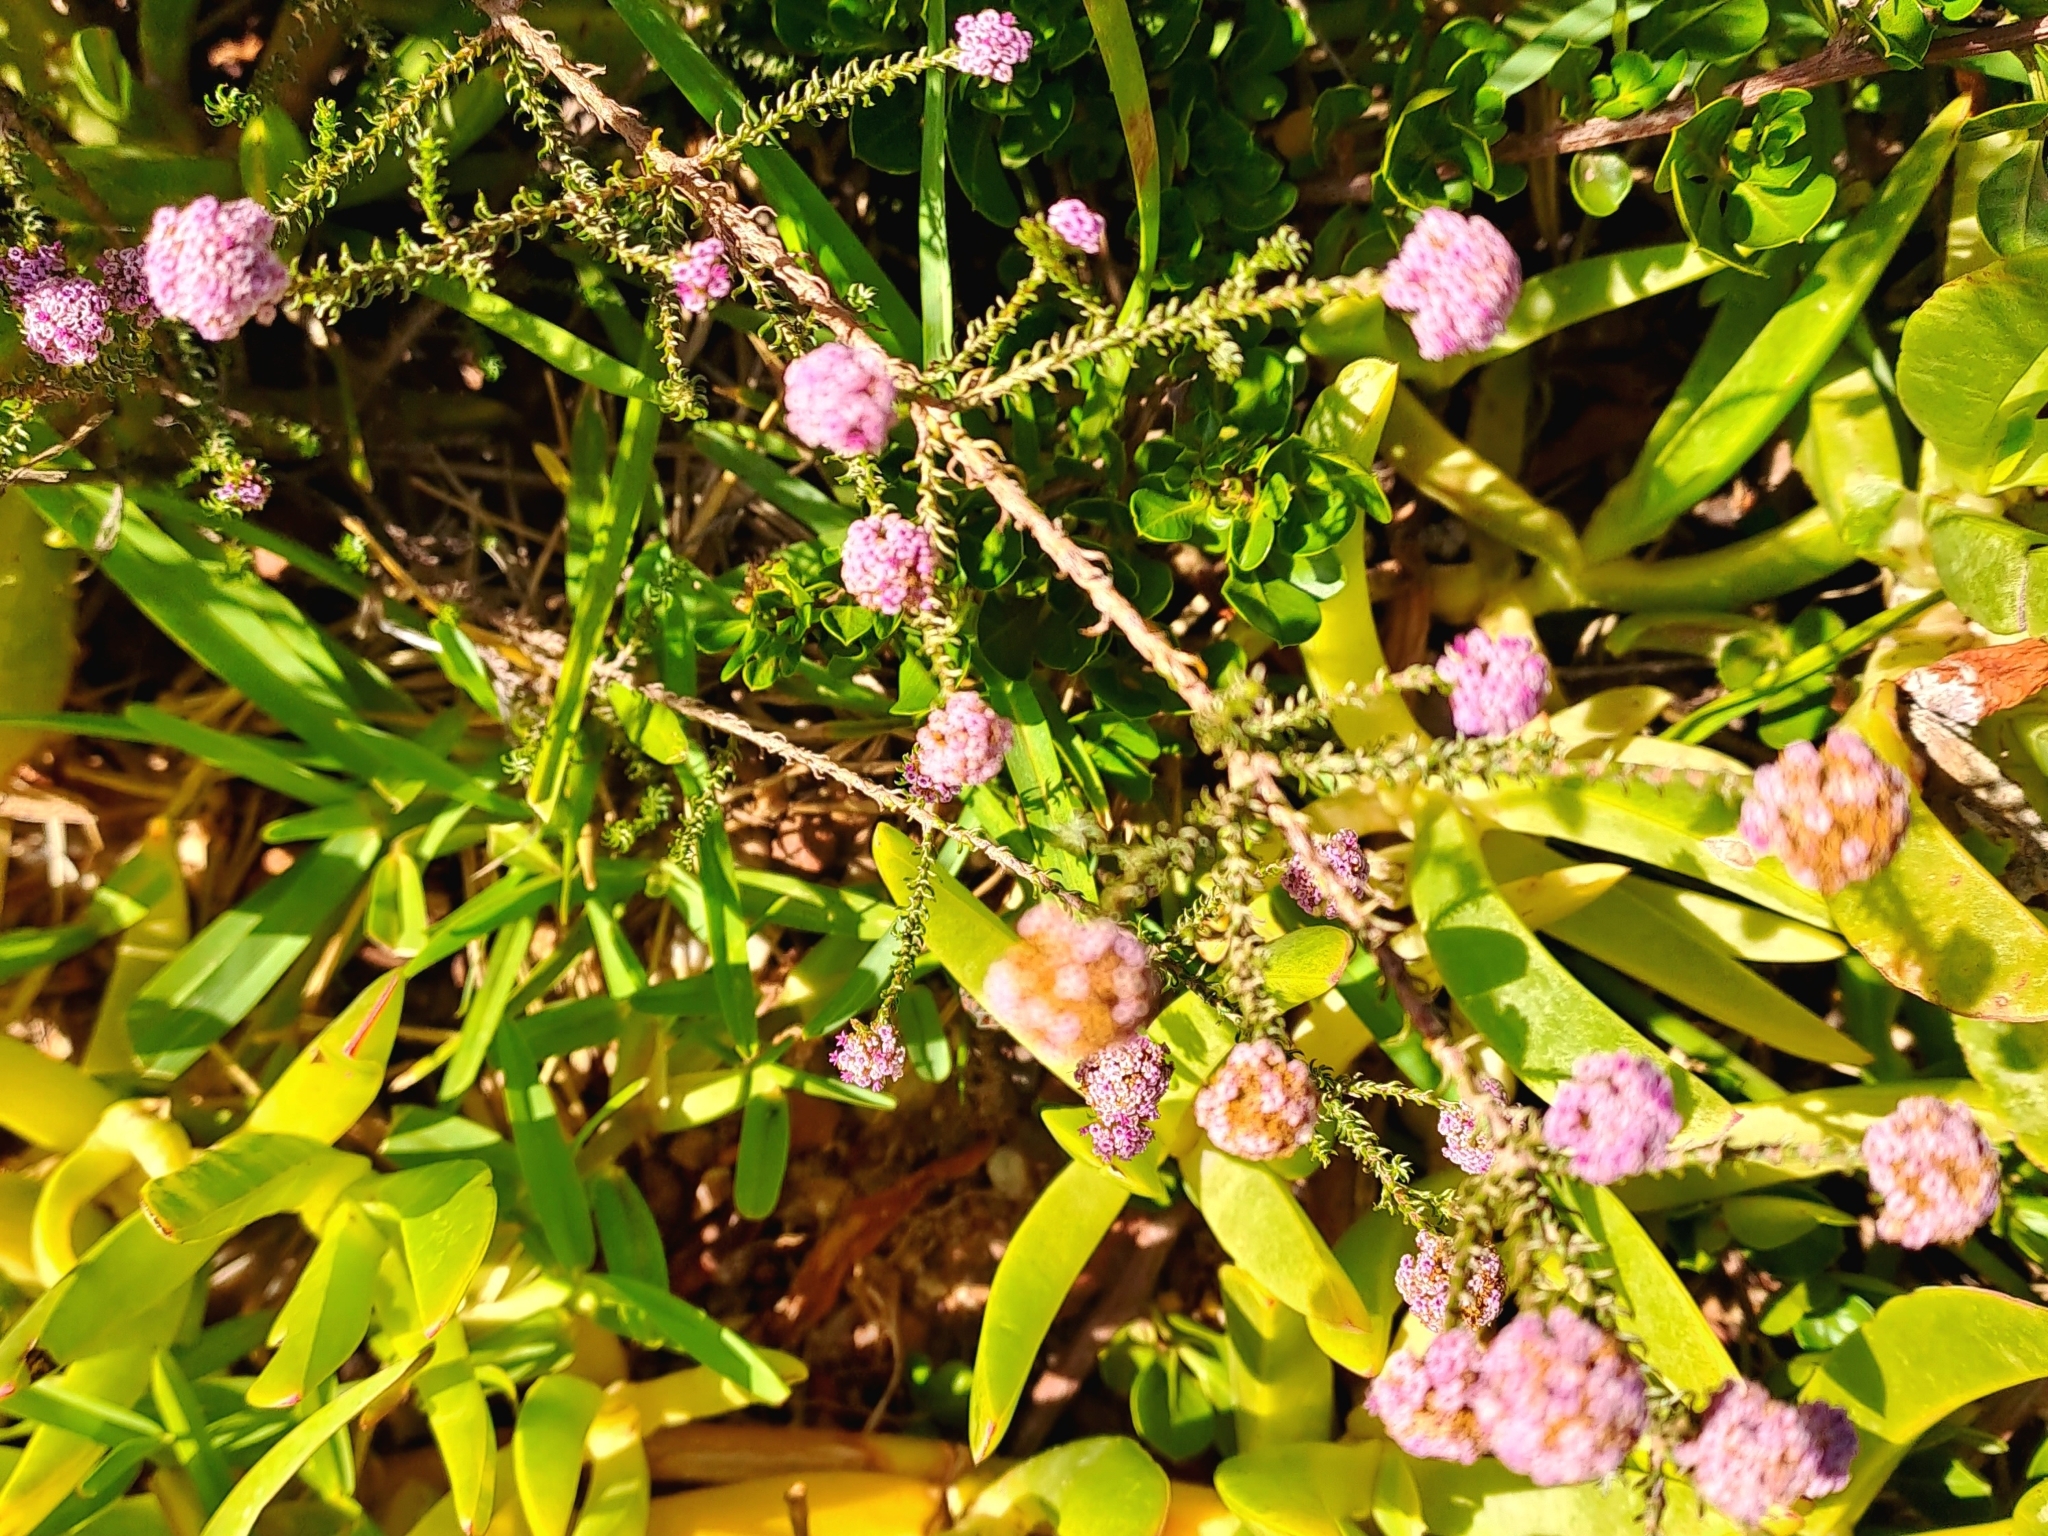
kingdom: Plantae
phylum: Tracheophyta
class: Magnoliopsida
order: Asterales
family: Asteraceae
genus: Stoebe
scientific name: Stoebe capitata
